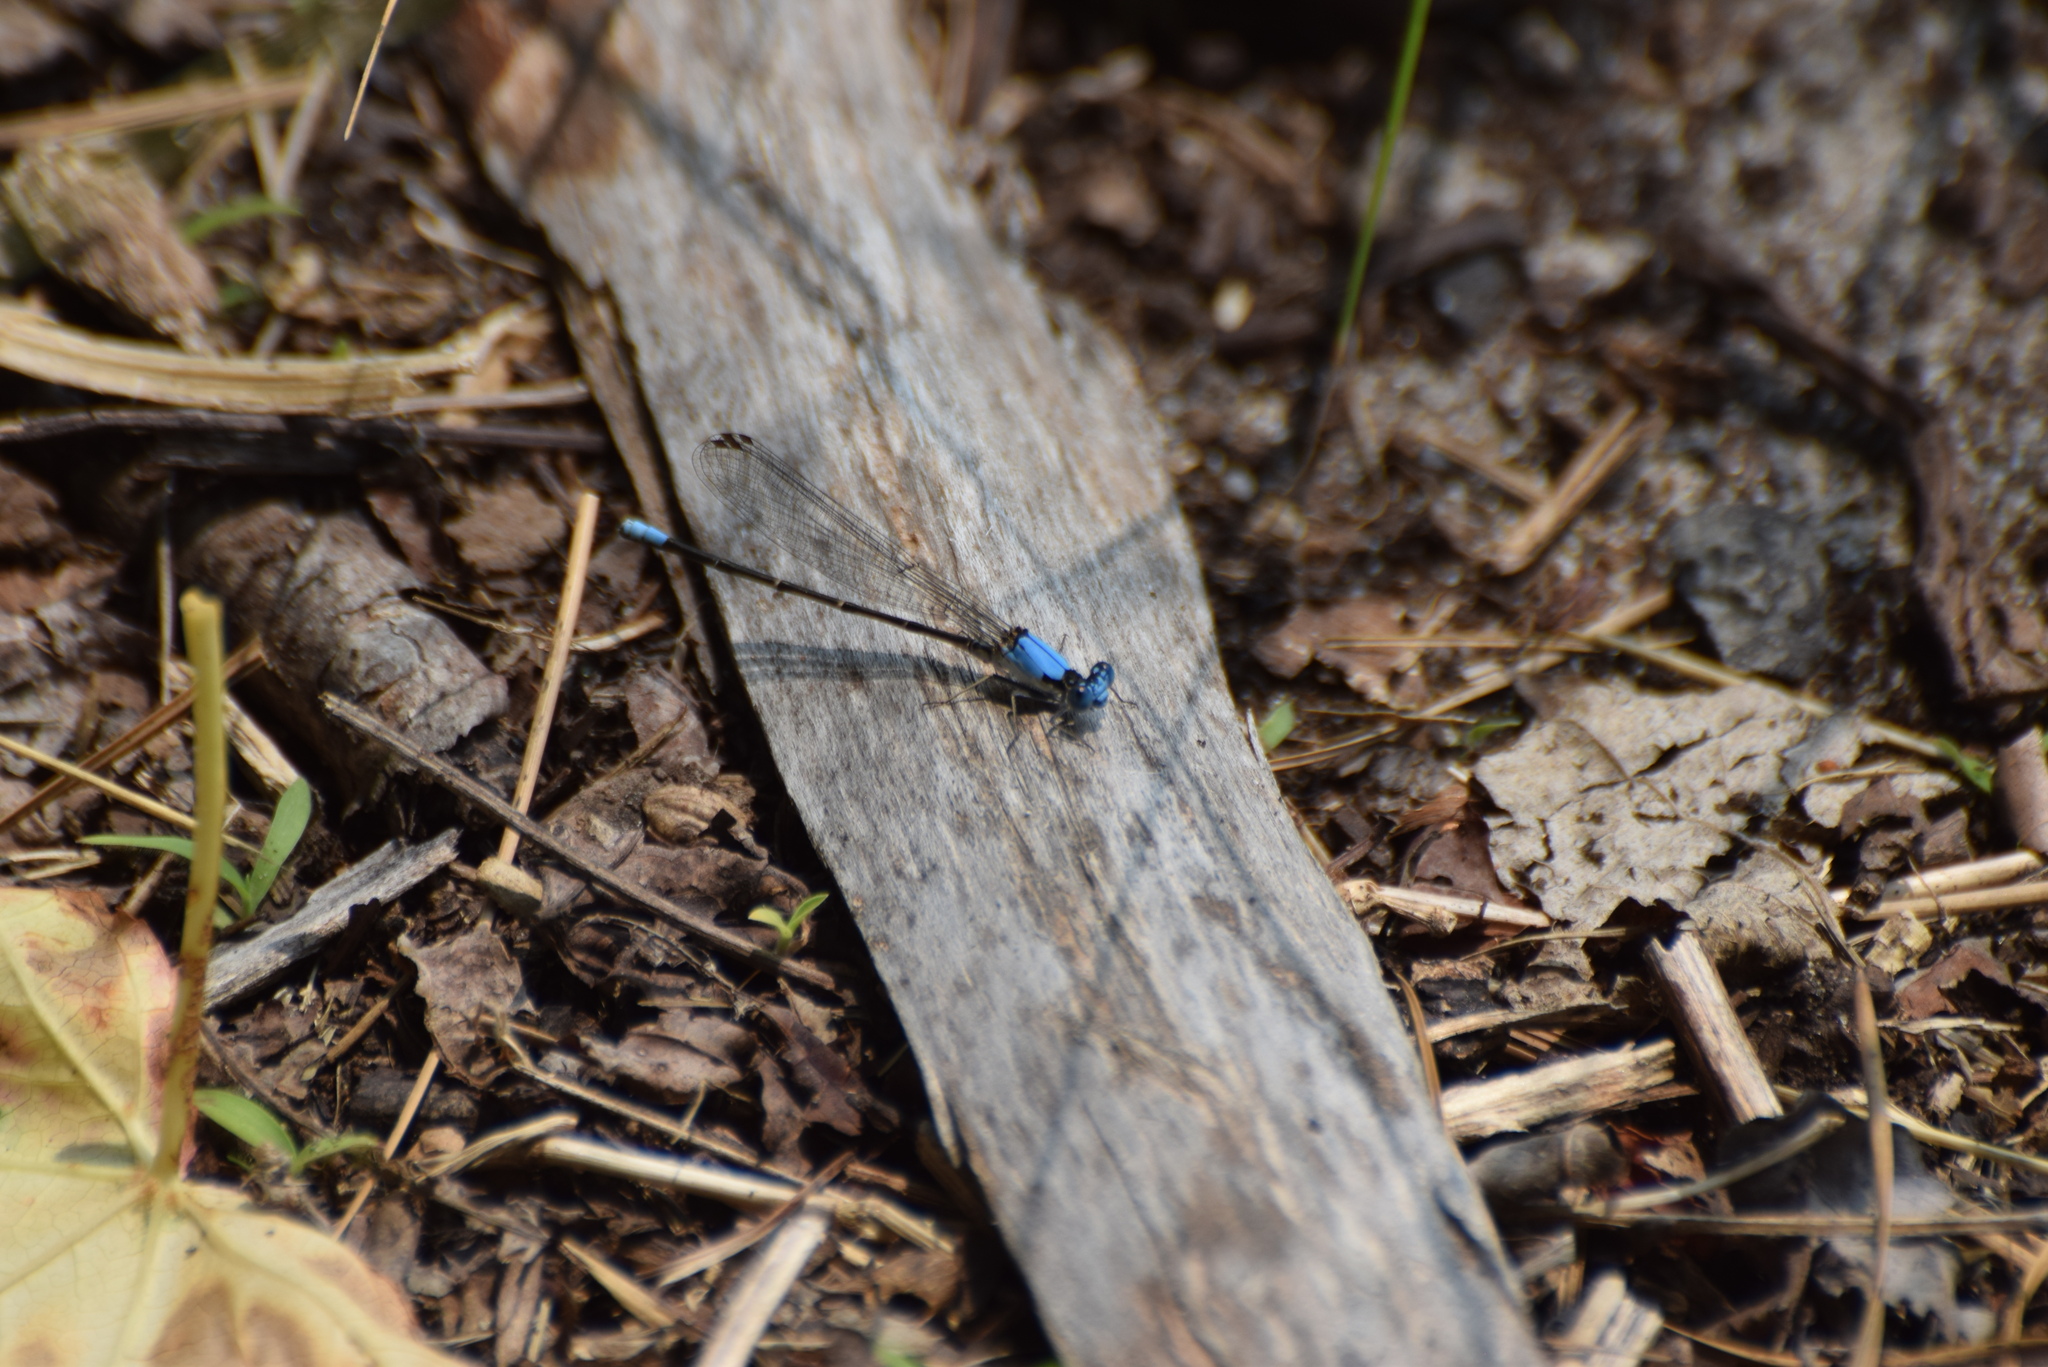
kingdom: Animalia
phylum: Arthropoda
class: Insecta
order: Odonata
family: Coenagrionidae
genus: Argia
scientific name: Argia apicalis
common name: Blue-fronted dancer
